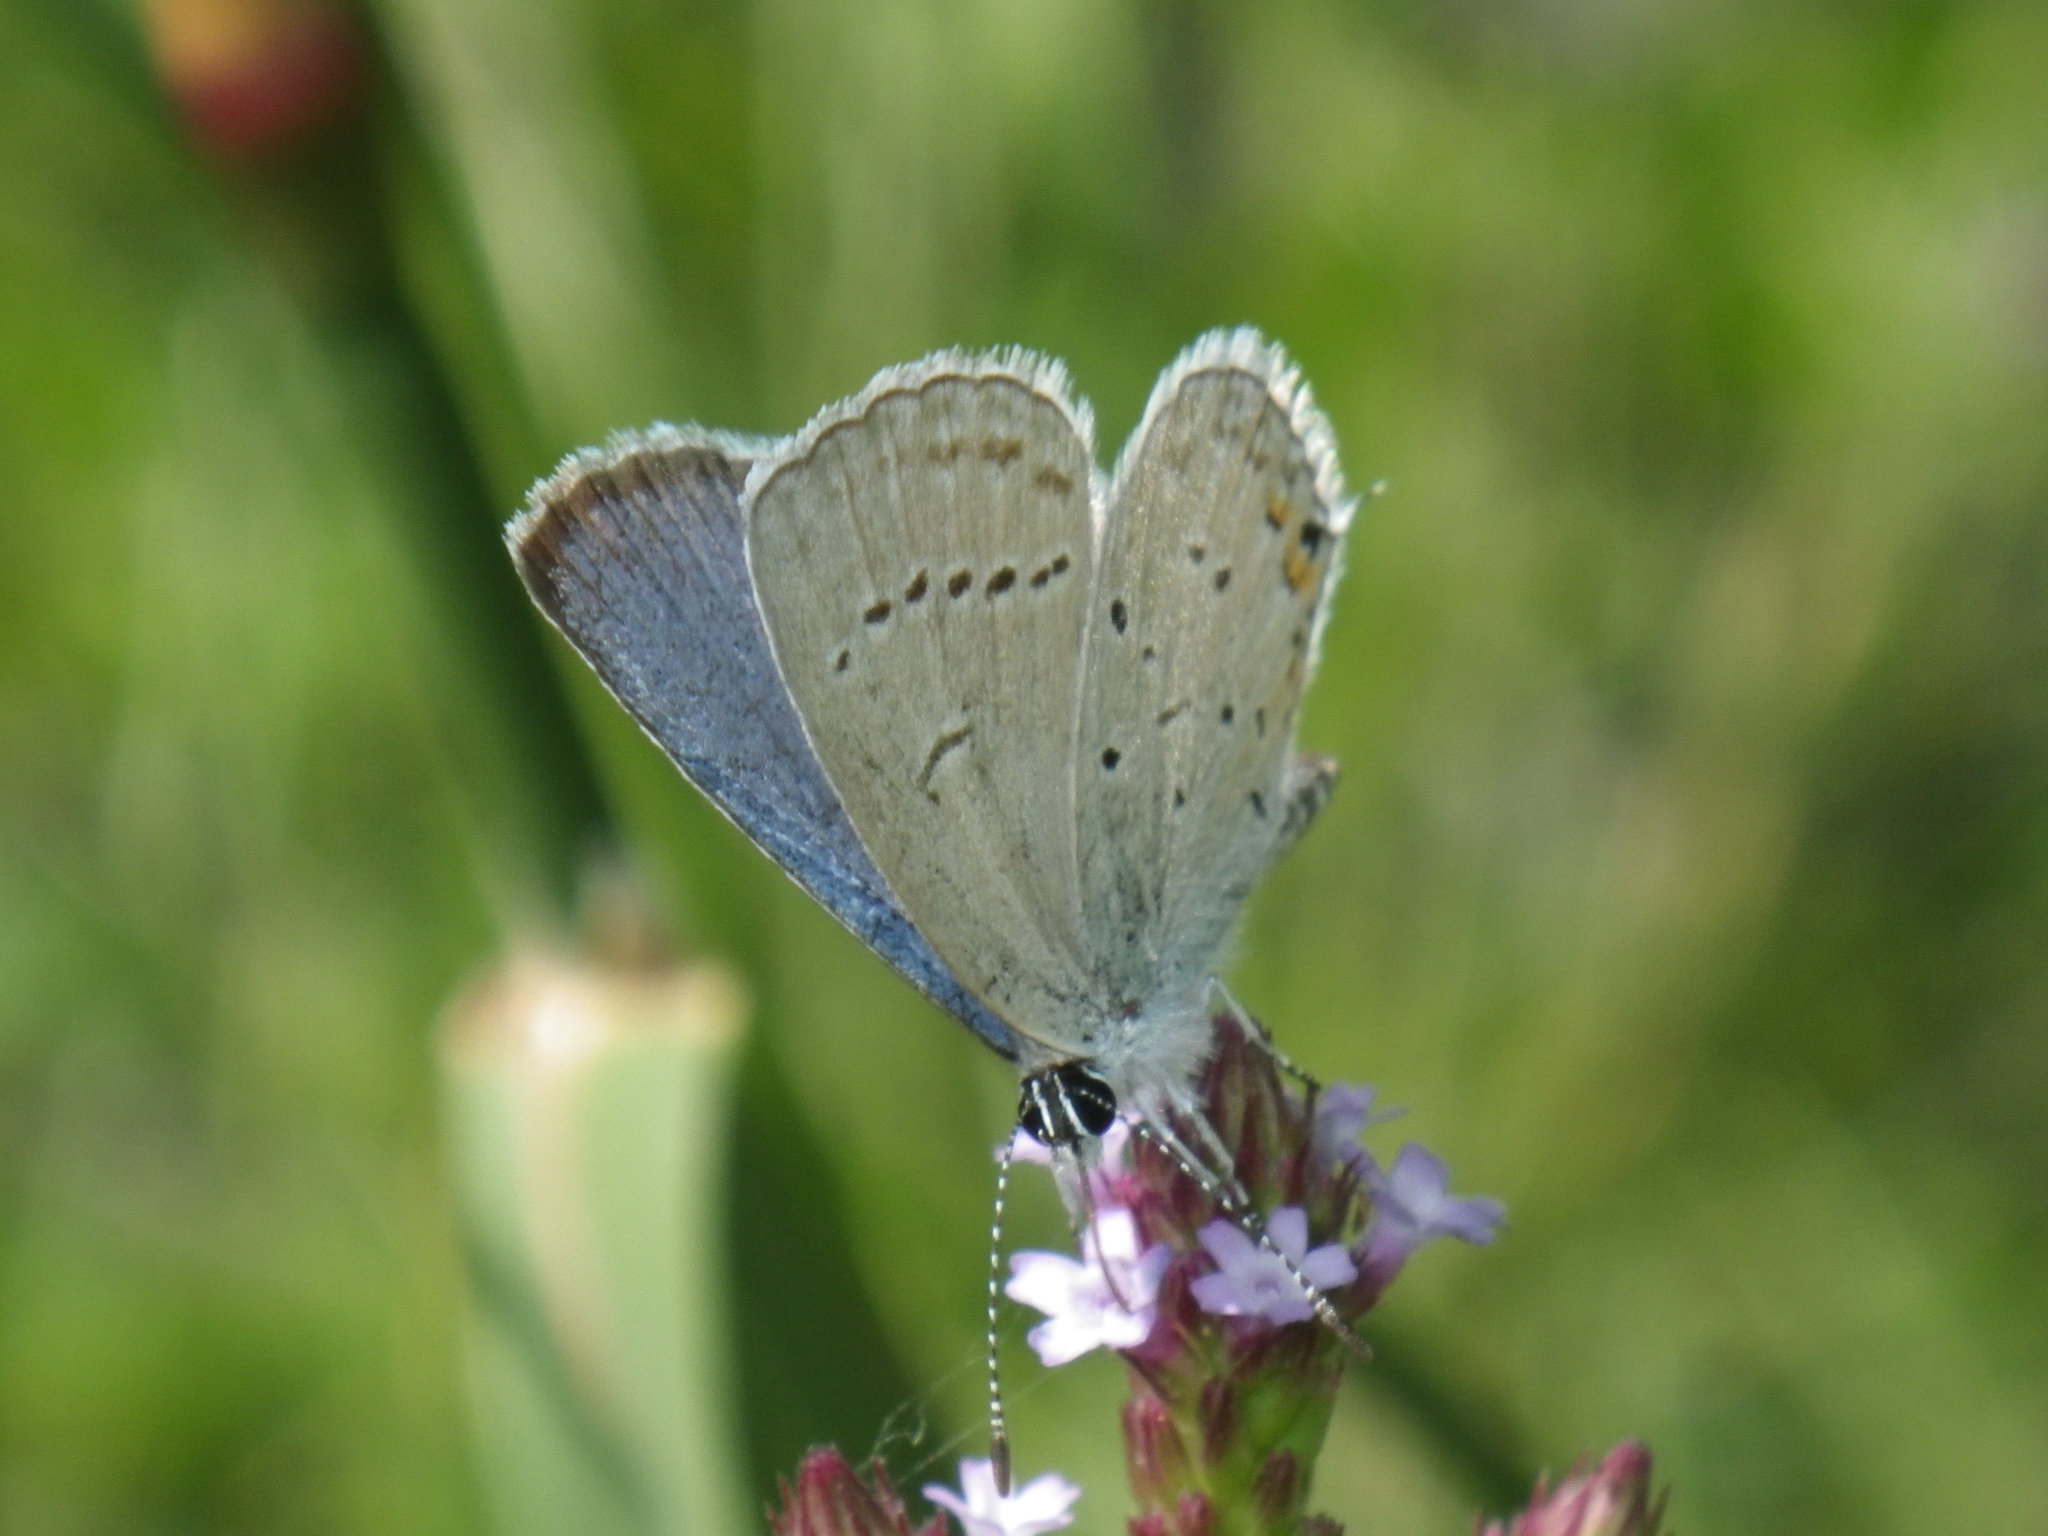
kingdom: Animalia
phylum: Arthropoda
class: Insecta
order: Lepidoptera
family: Lycaenidae
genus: Elkalyce
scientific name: Elkalyce comyntas
